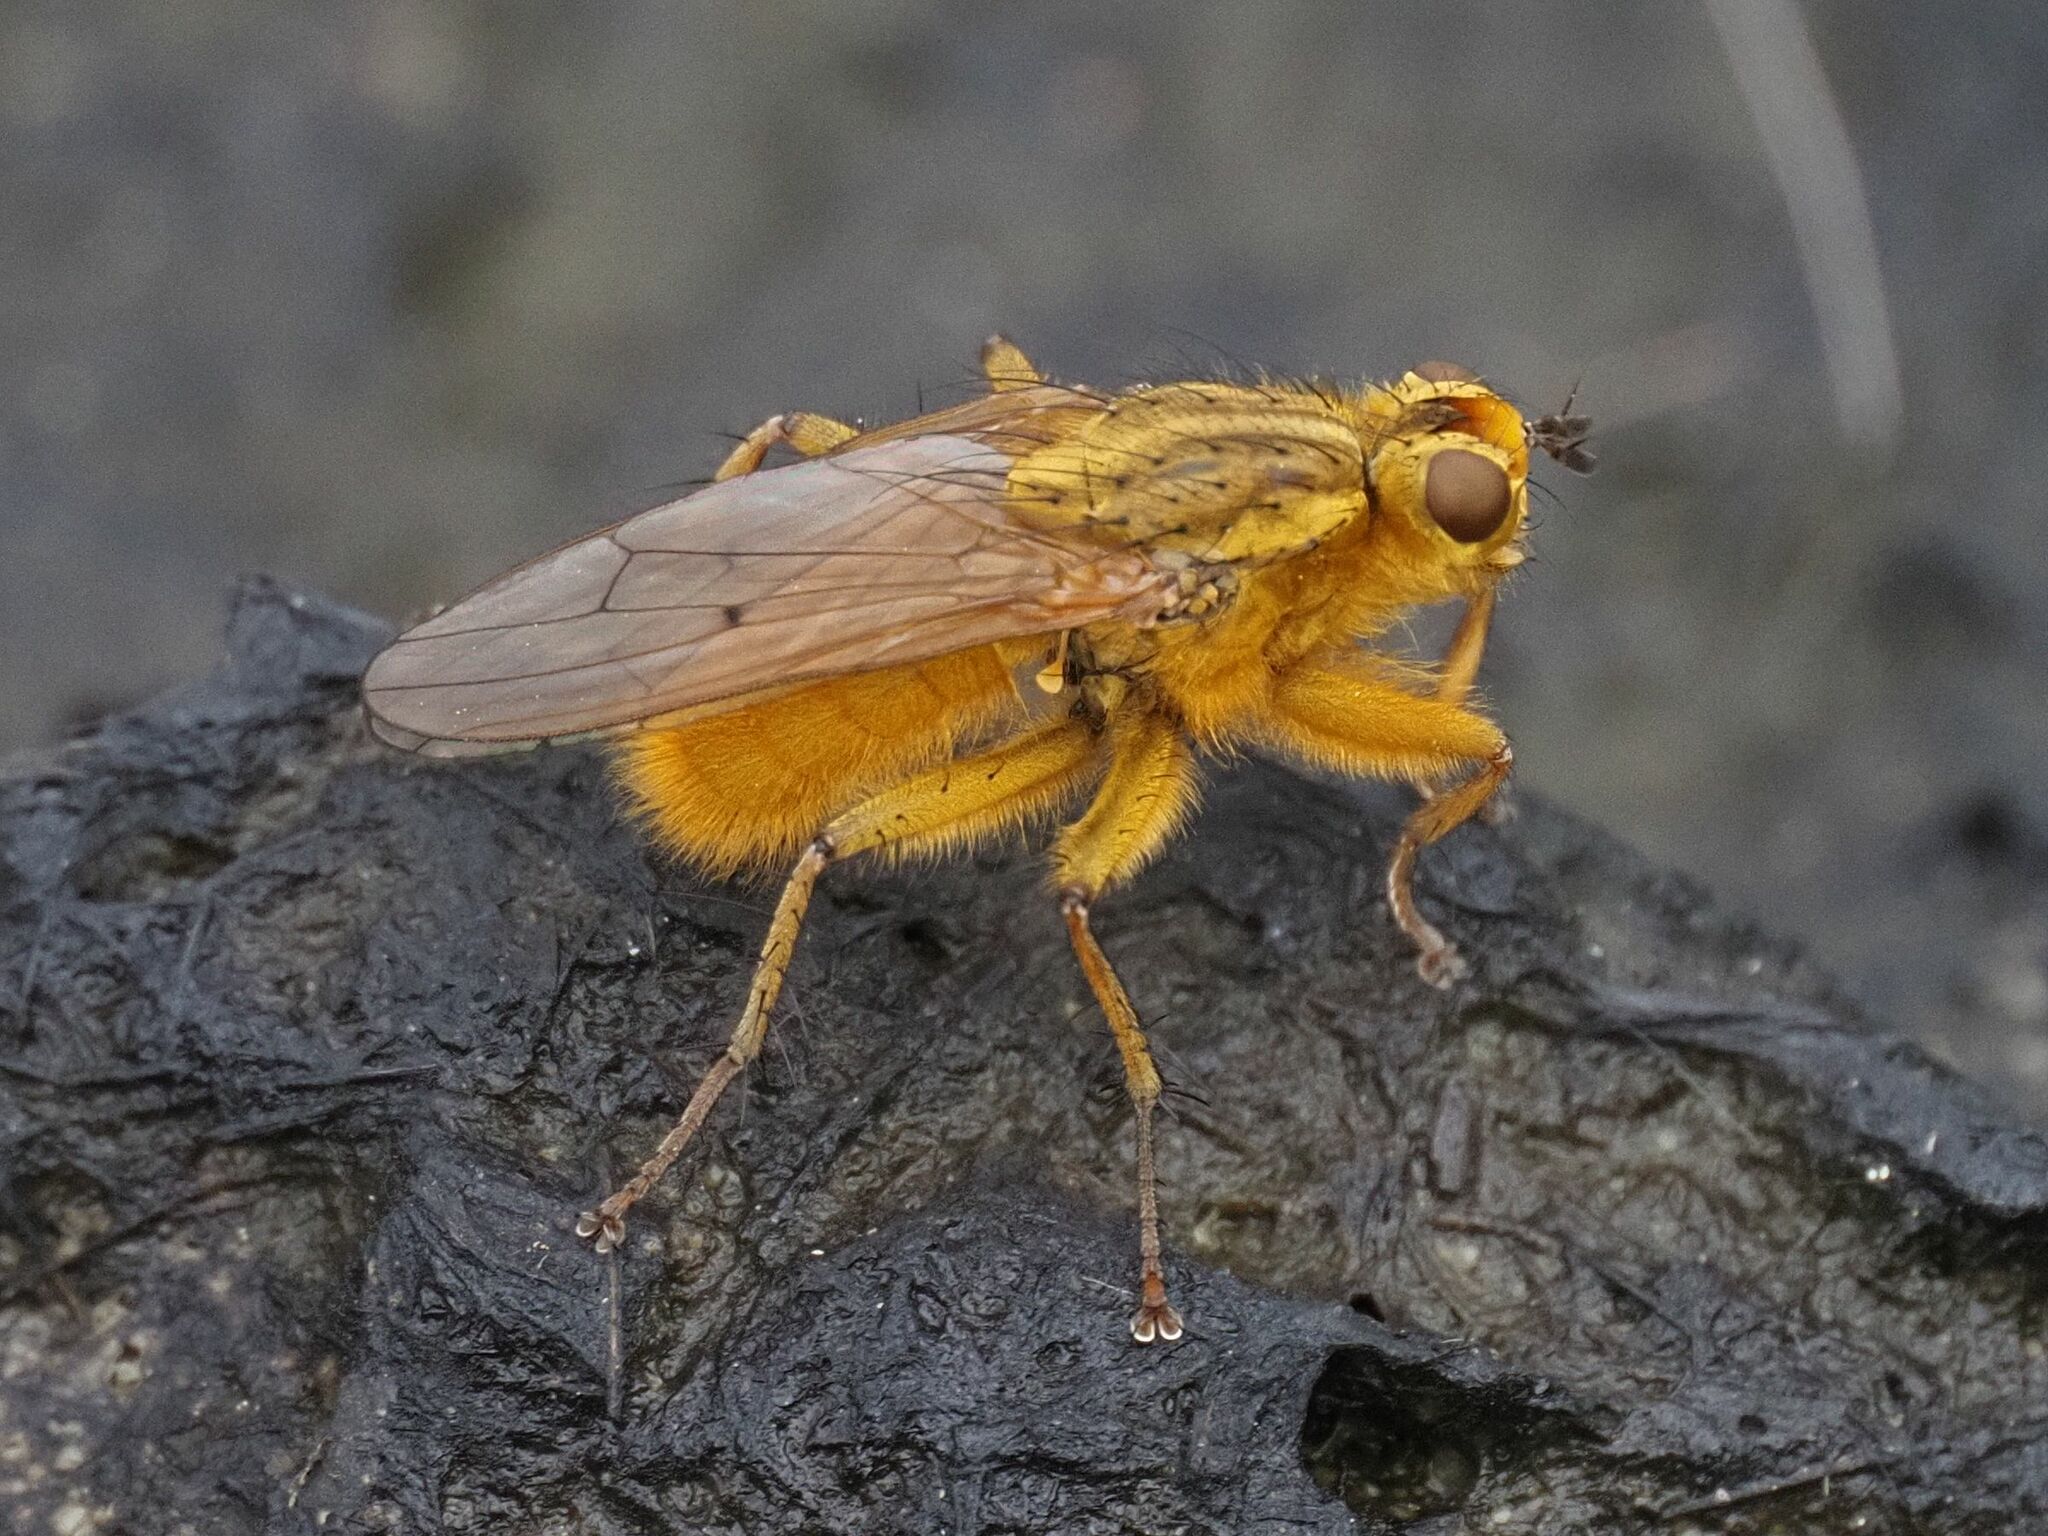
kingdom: Animalia
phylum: Arthropoda
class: Insecta
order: Diptera
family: Scathophagidae
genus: Scathophaga
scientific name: Scathophaga stercoraria
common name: Yellow dung fly
